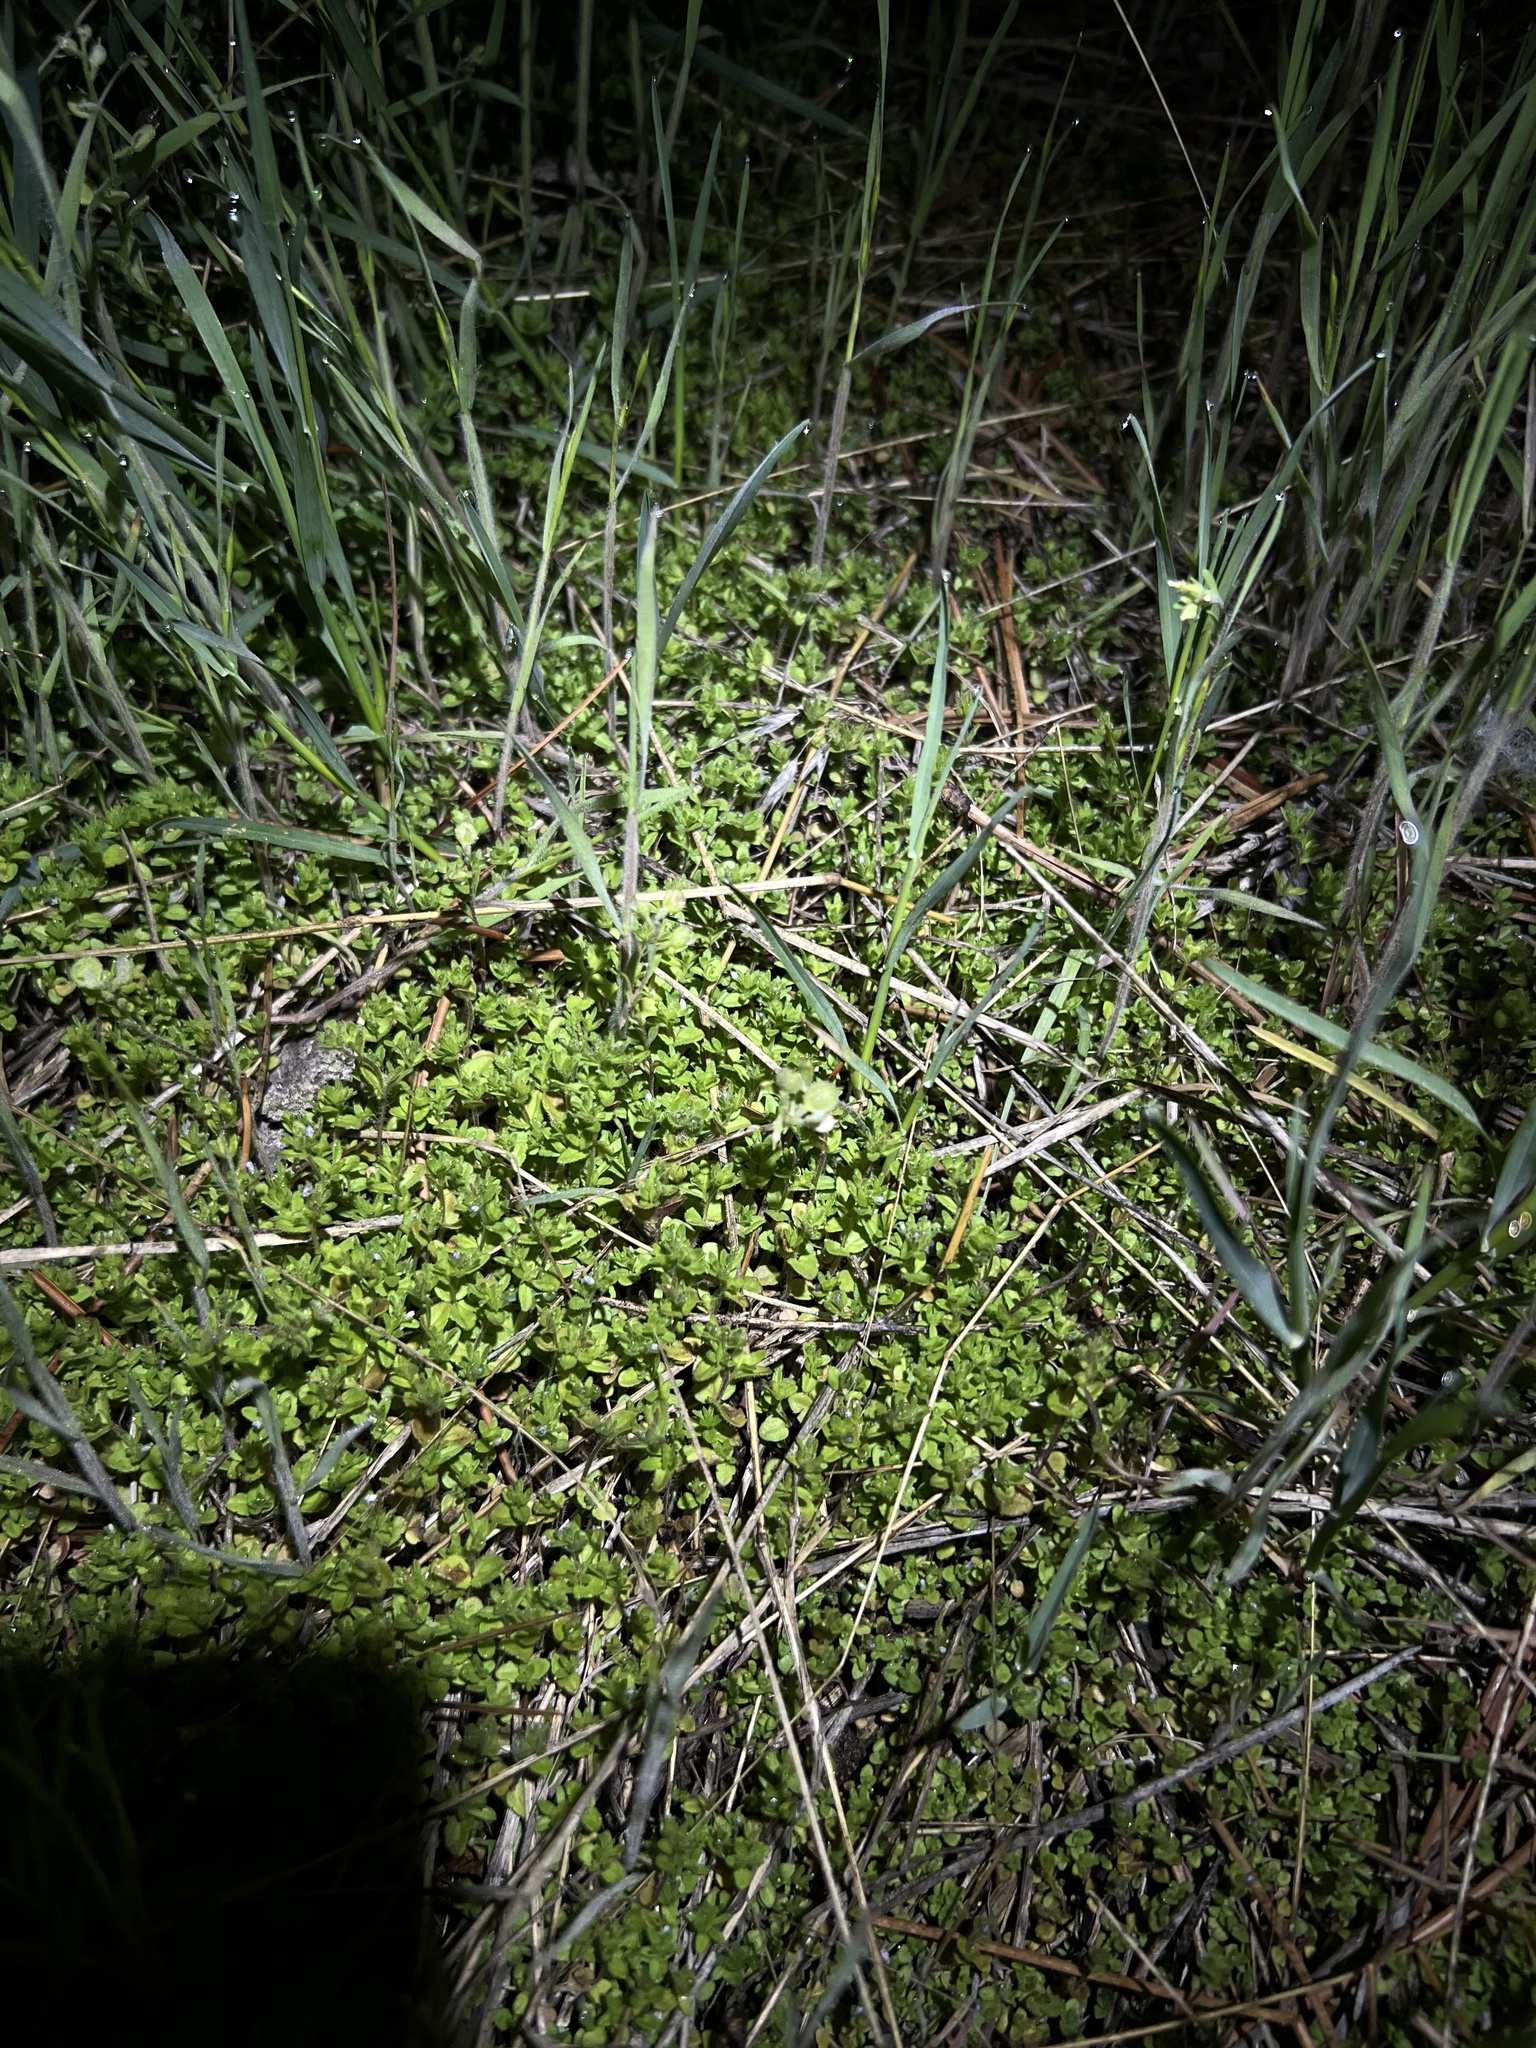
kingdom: Plantae
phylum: Tracheophyta
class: Magnoliopsida
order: Lamiales
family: Plantaginaceae
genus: Veronica
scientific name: Veronica arvensis
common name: Corn speedwell
